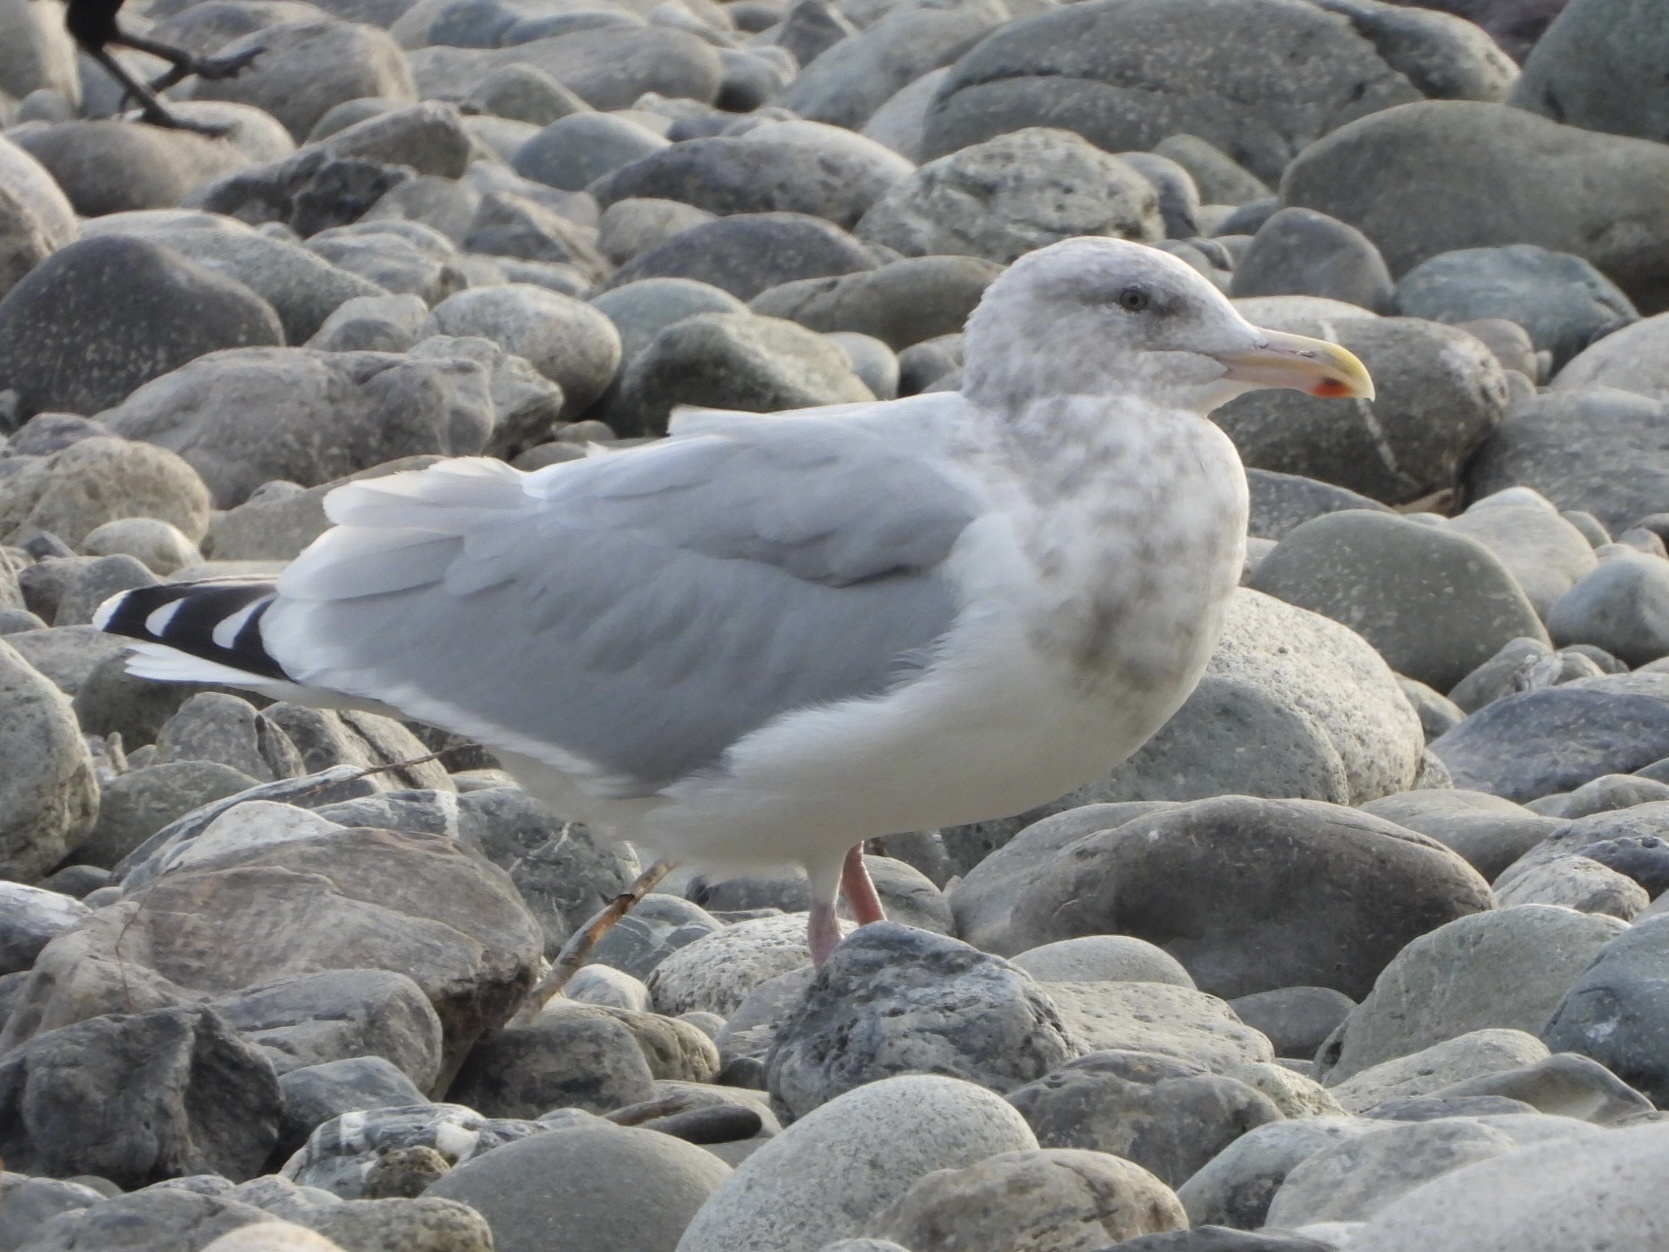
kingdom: Animalia
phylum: Chordata
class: Aves
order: Charadriiformes
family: Laridae
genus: Larus
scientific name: Larus
